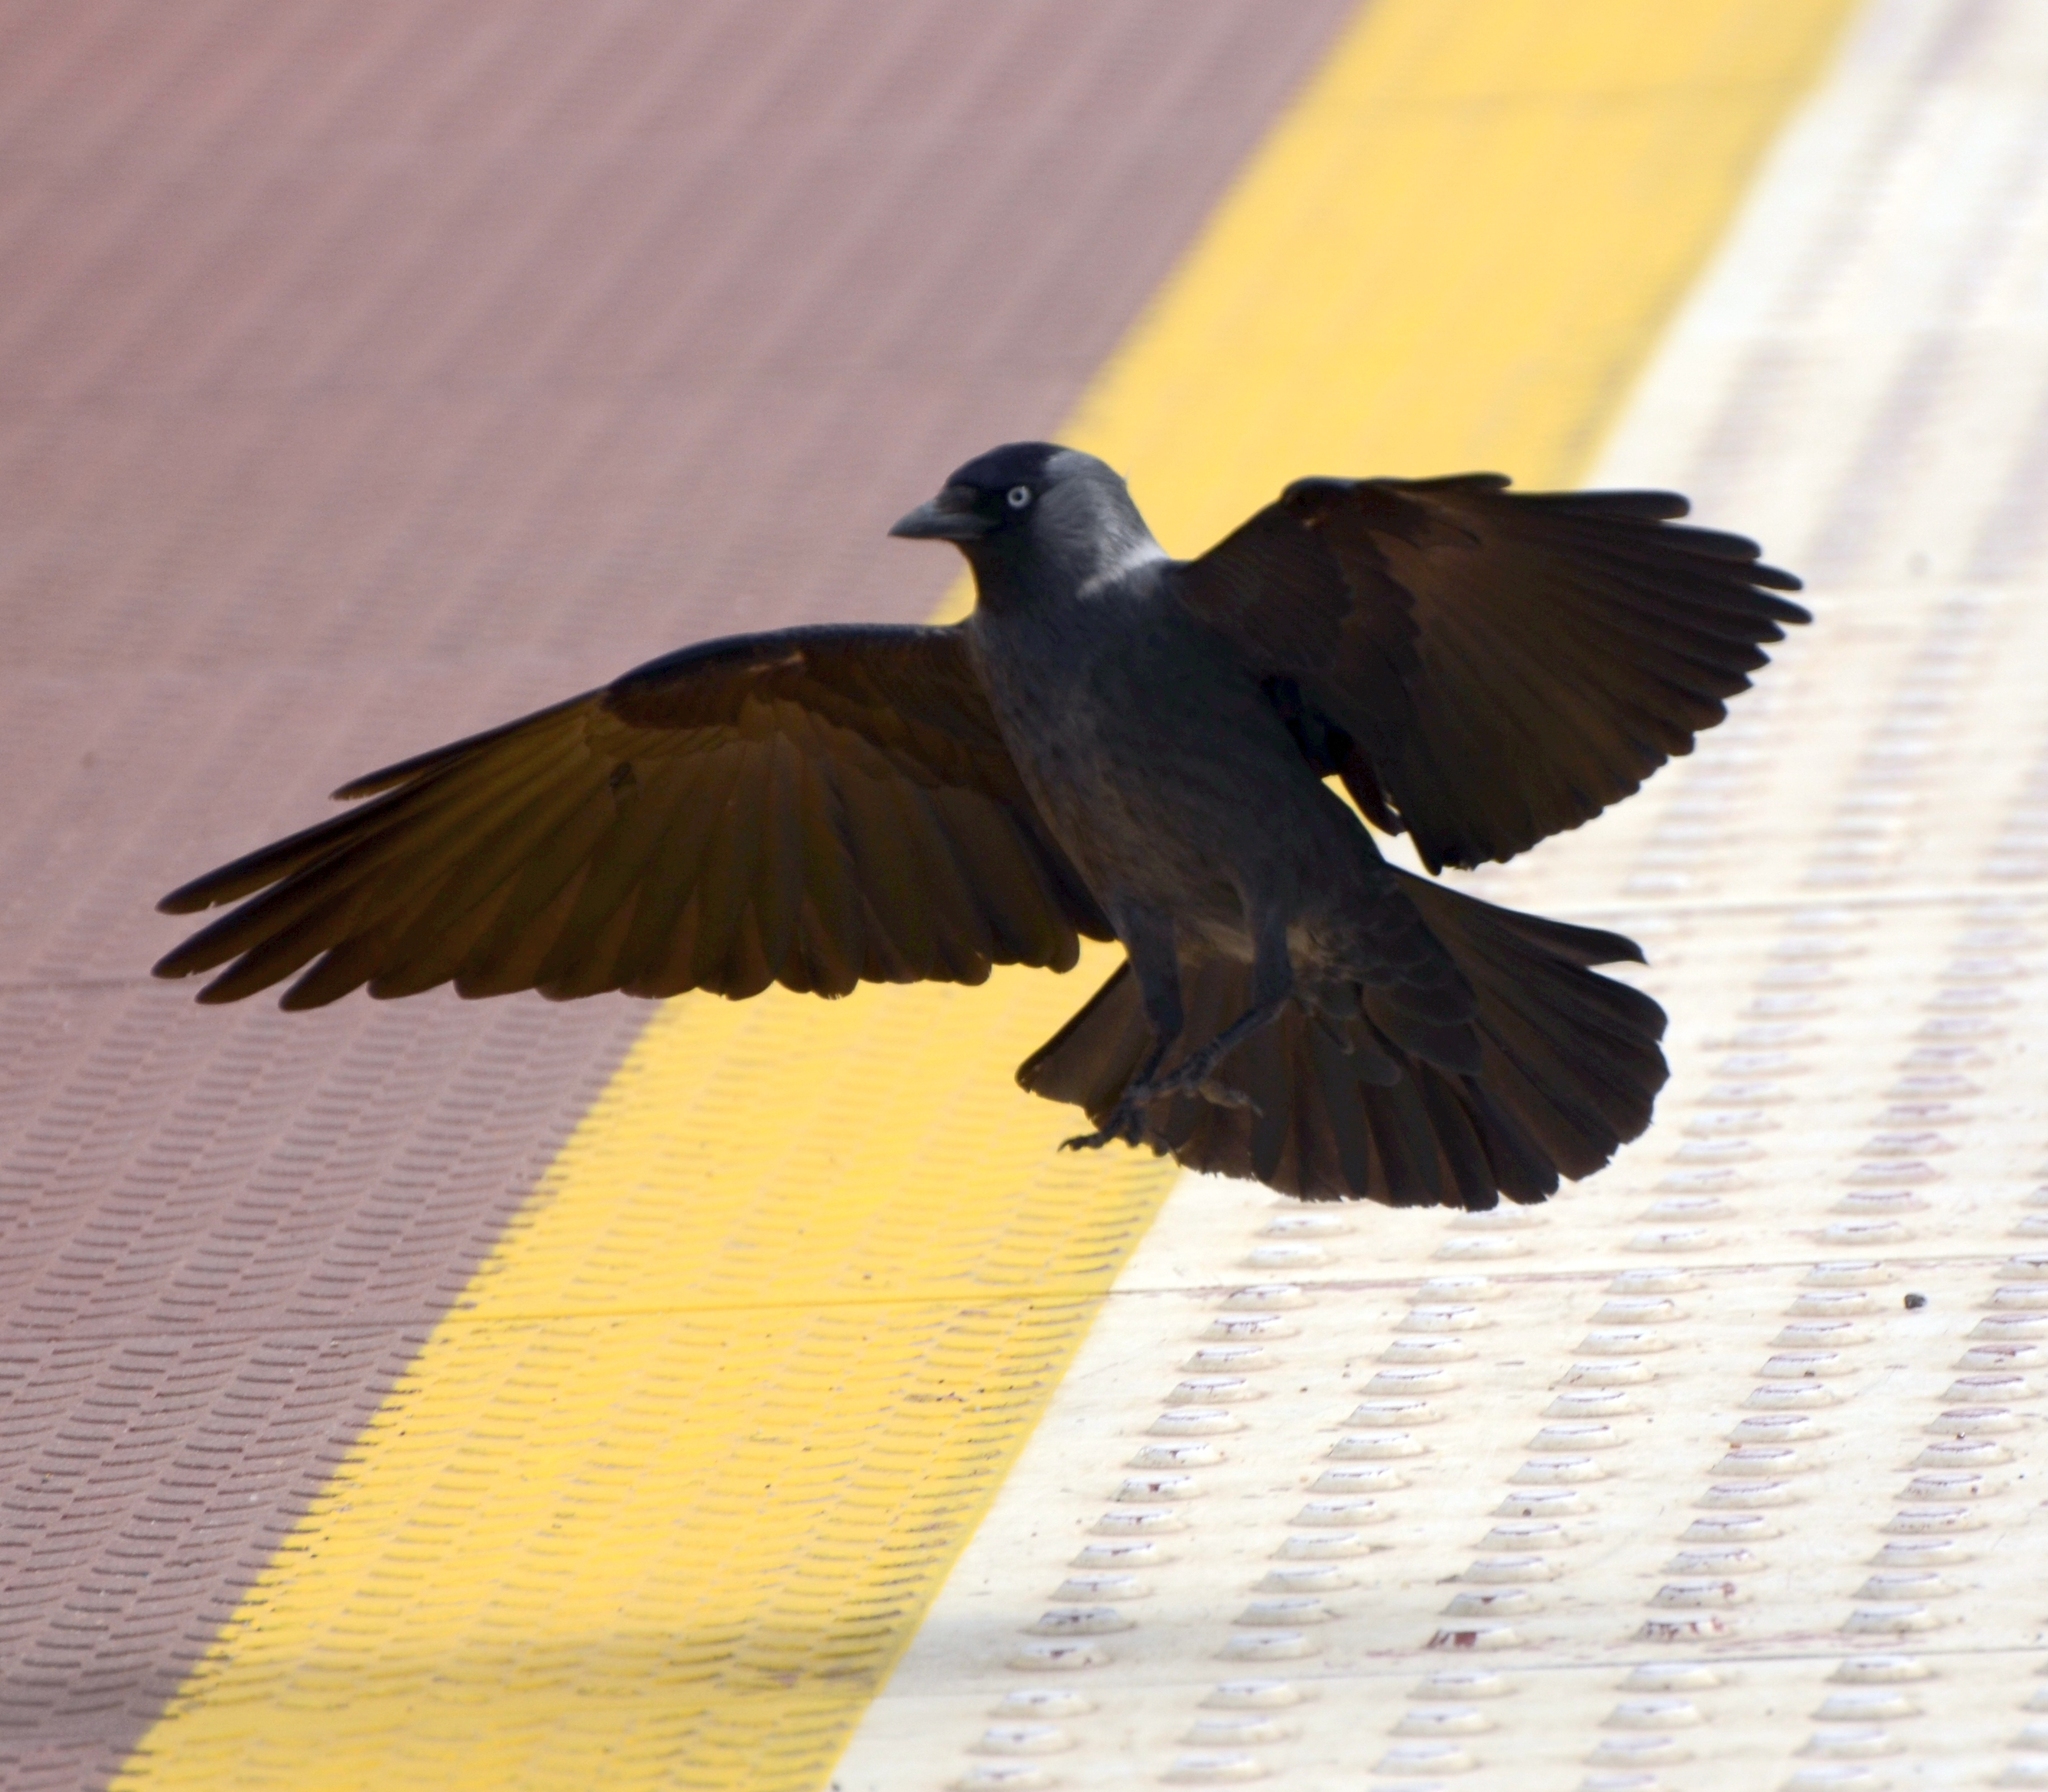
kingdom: Animalia
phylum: Chordata
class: Aves
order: Passeriformes
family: Corvidae
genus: Coloeus
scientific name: Coloeus monedula
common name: Western jackdaw
